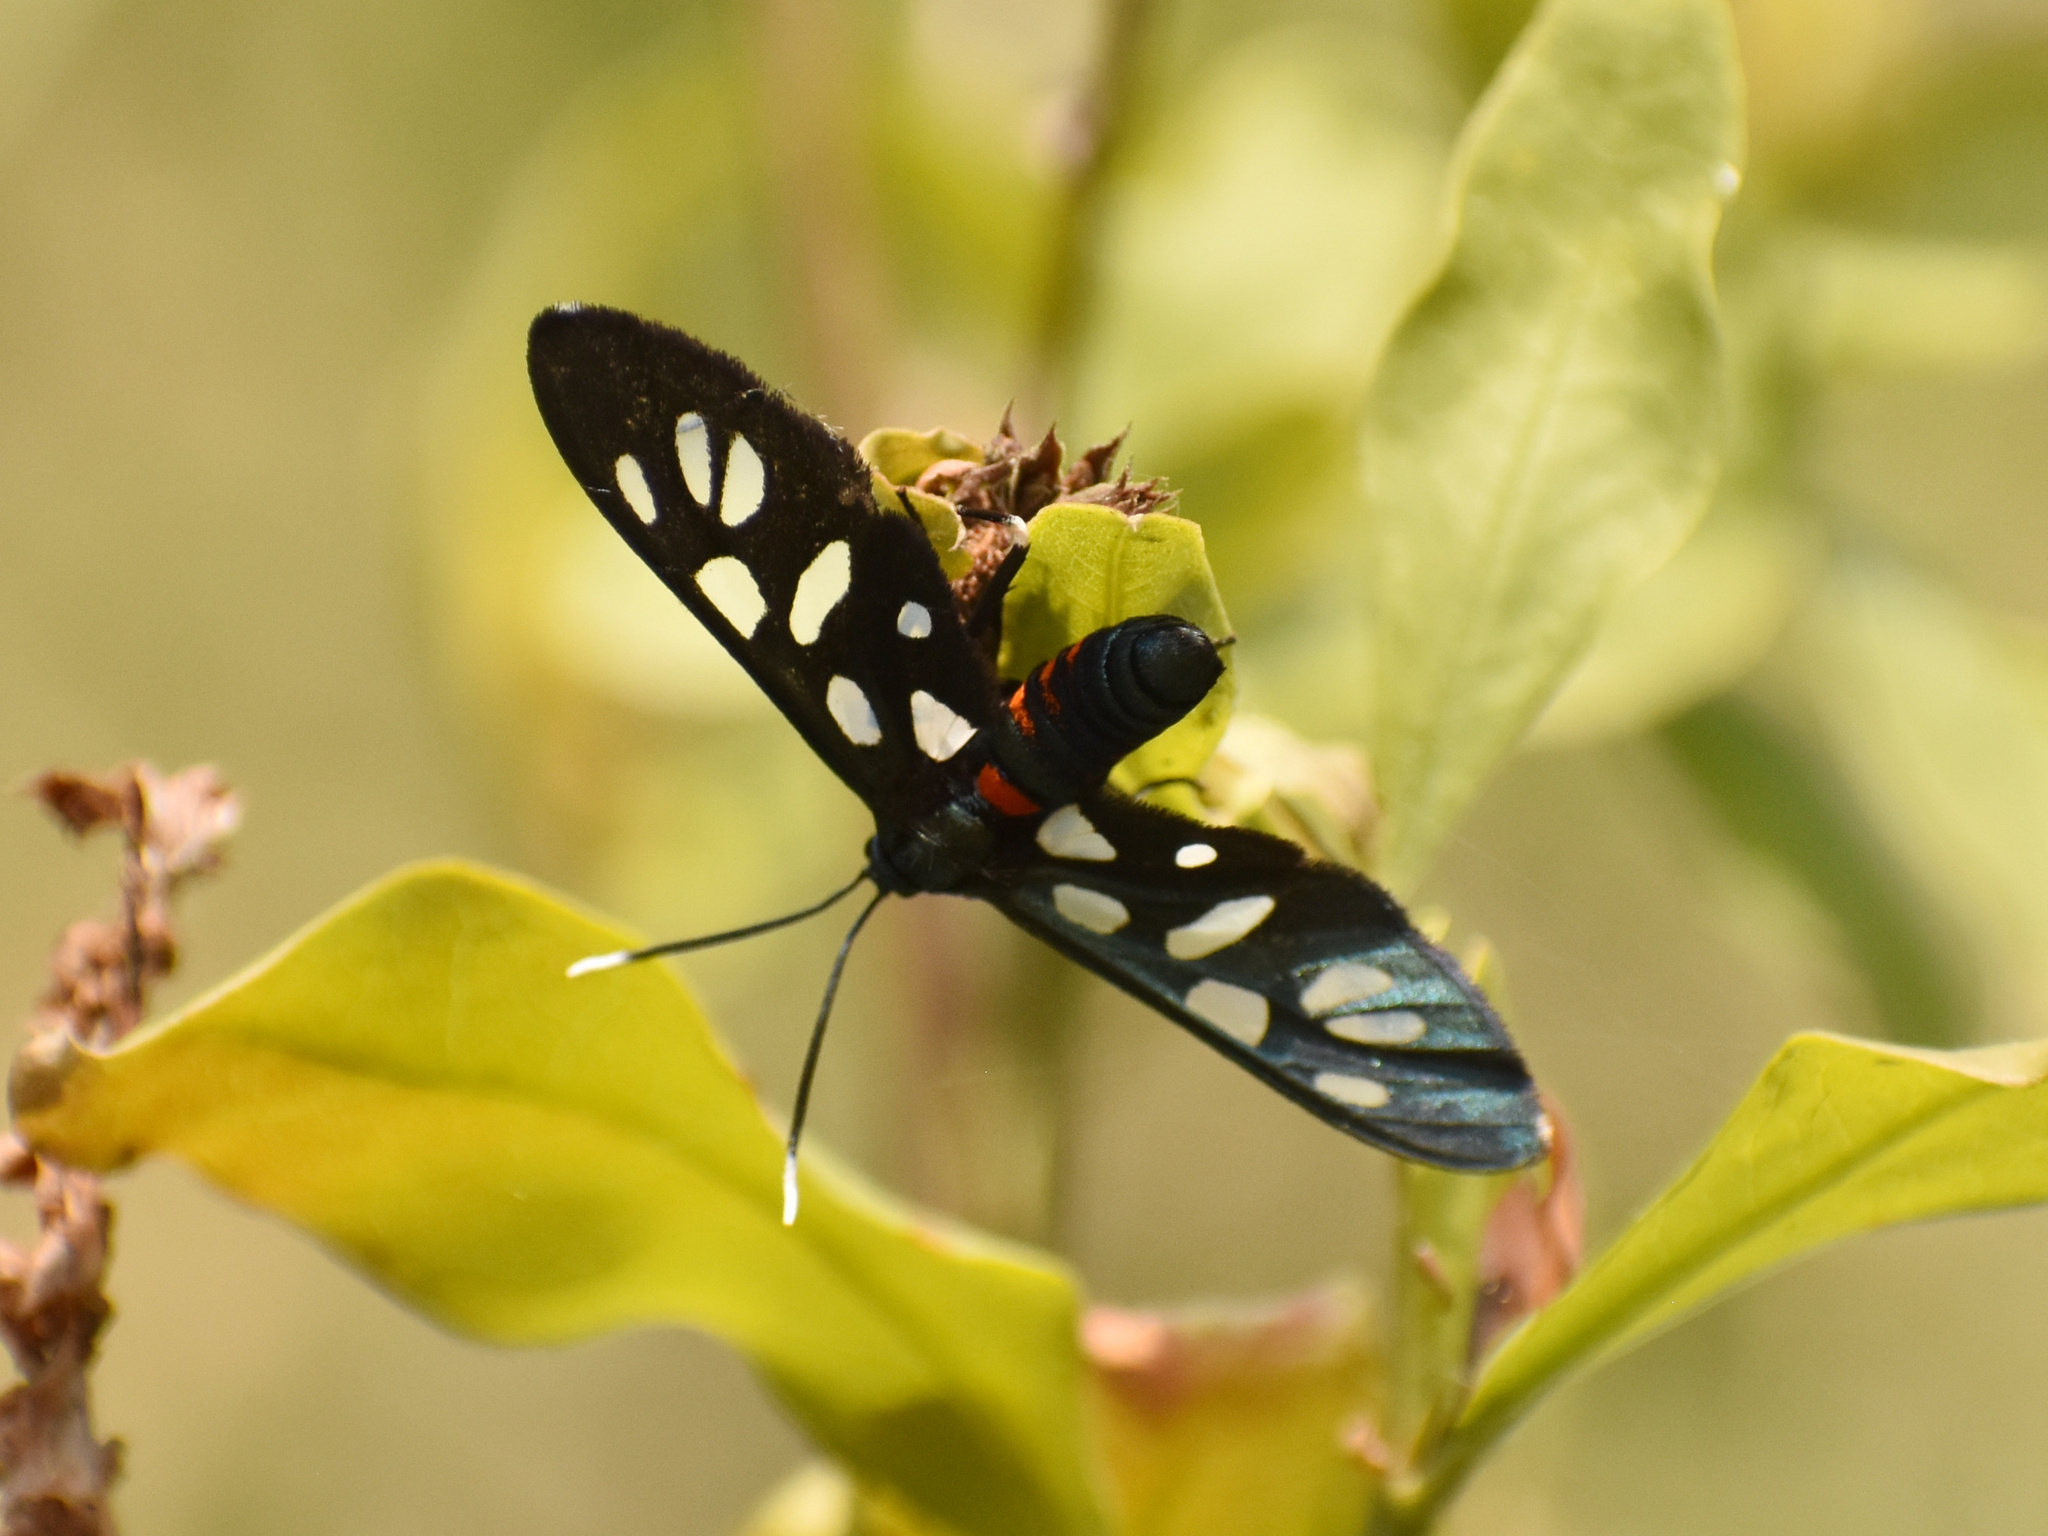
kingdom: Animalia
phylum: Arthropoda
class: Insecta
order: Lepidoptera
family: Erebidae
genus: Amata
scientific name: Amata kuhlweini
